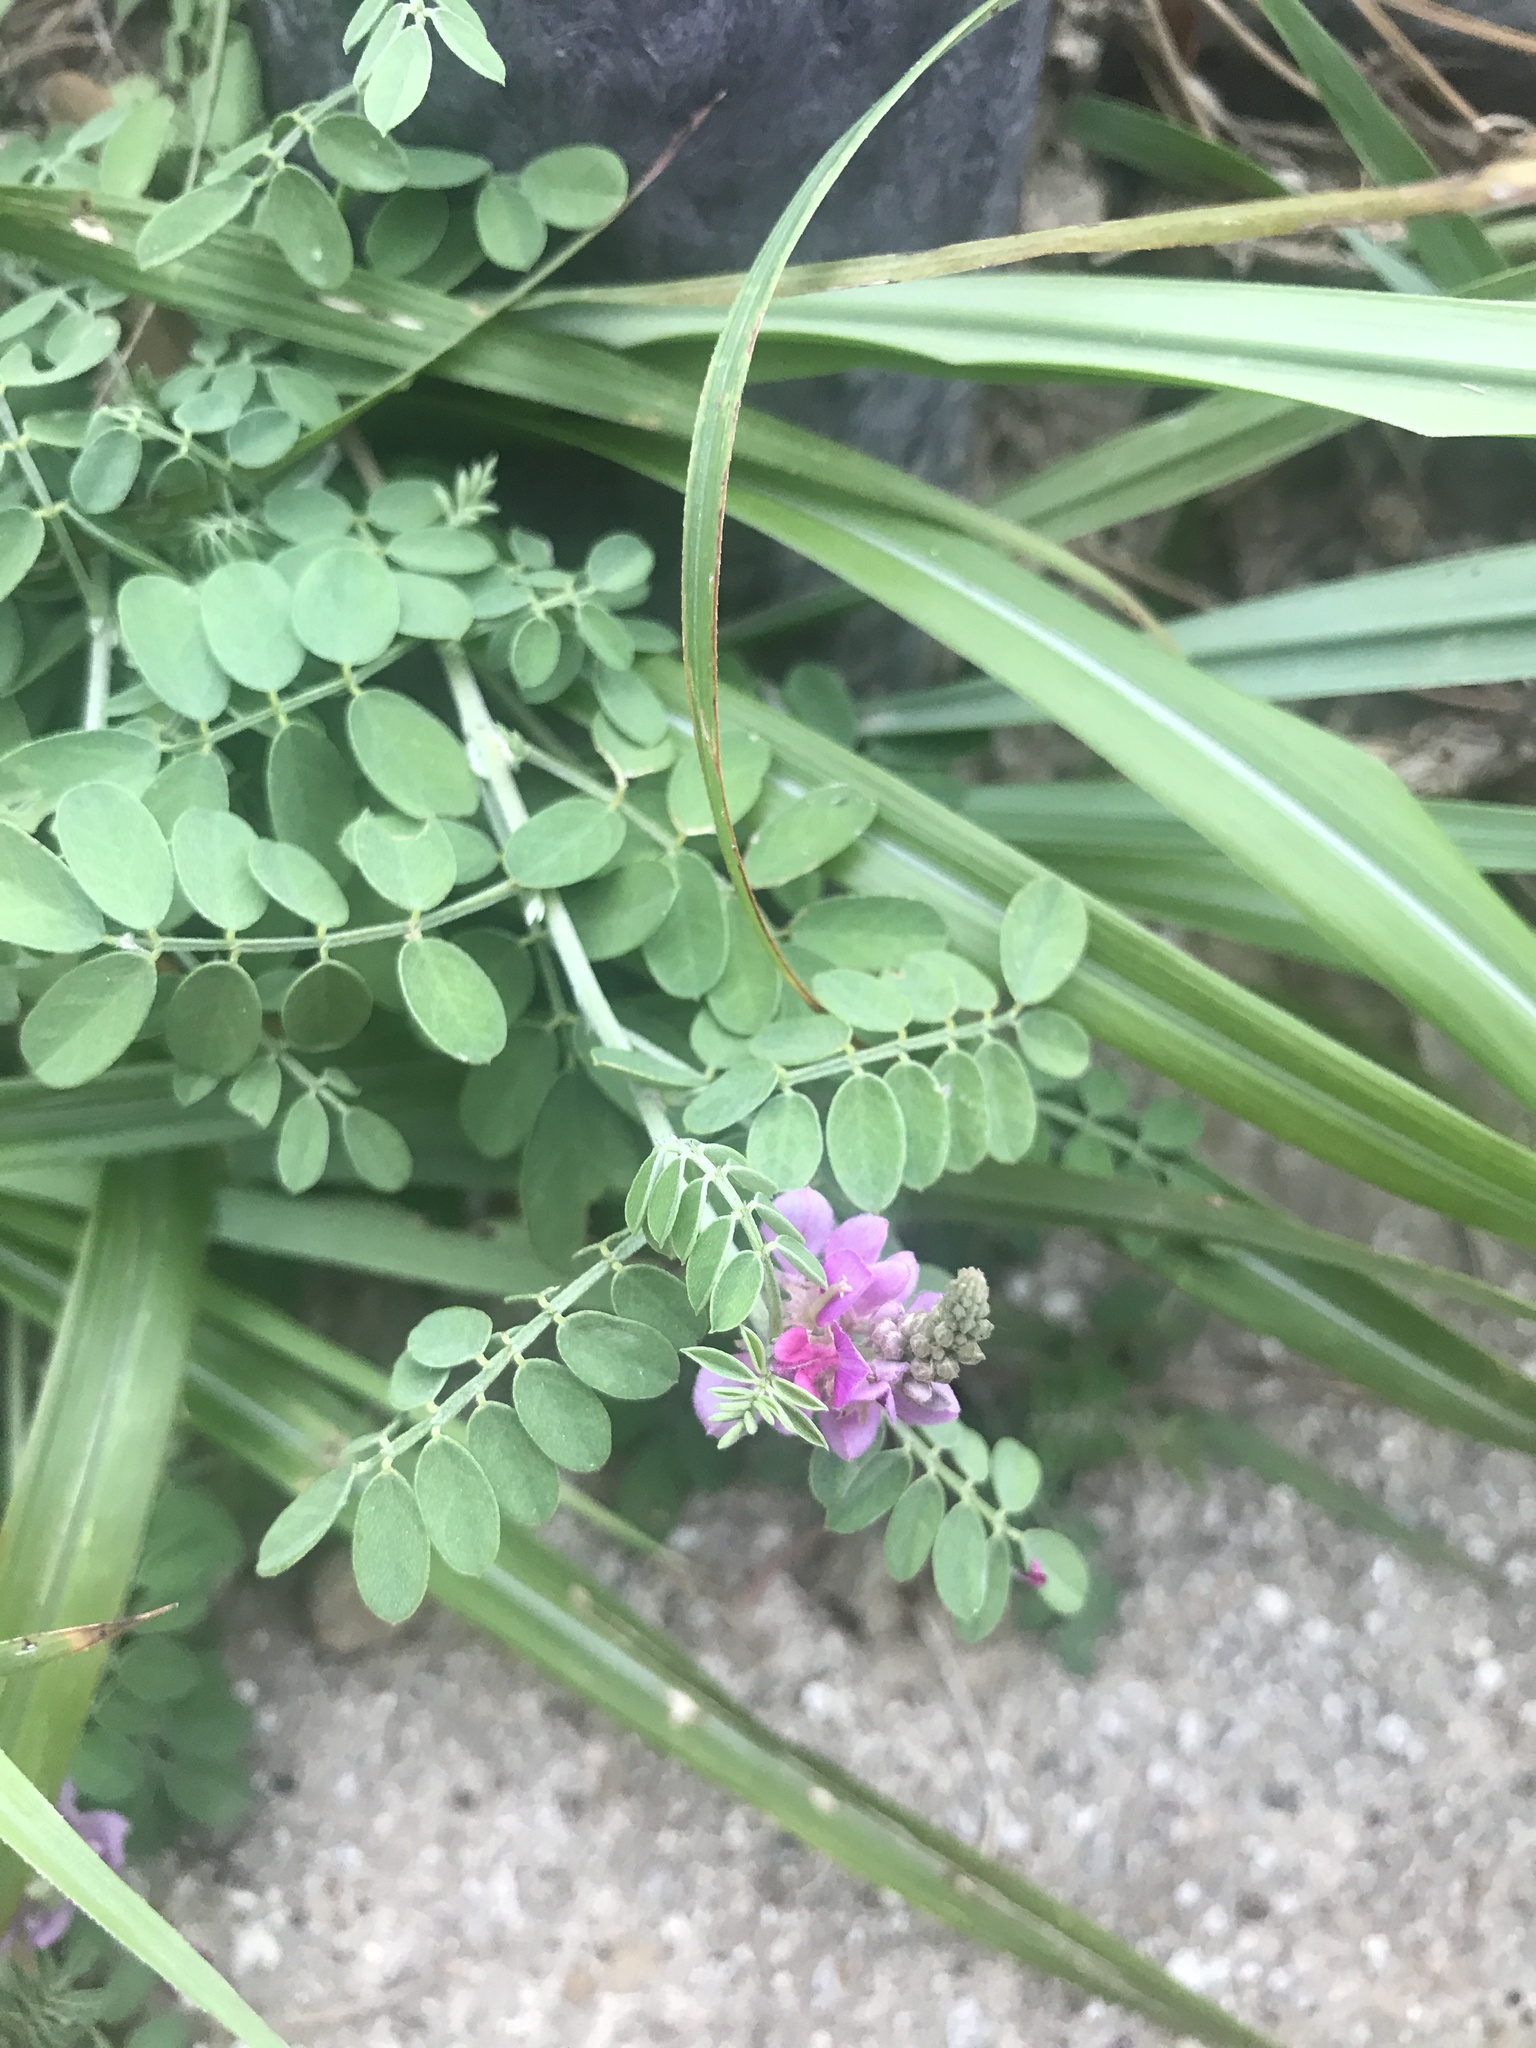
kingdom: Plantae
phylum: Tracheophyta
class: Magnoliopsida
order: Fabales
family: Fabaceae
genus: Indigofera
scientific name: Indigofera bungeana
